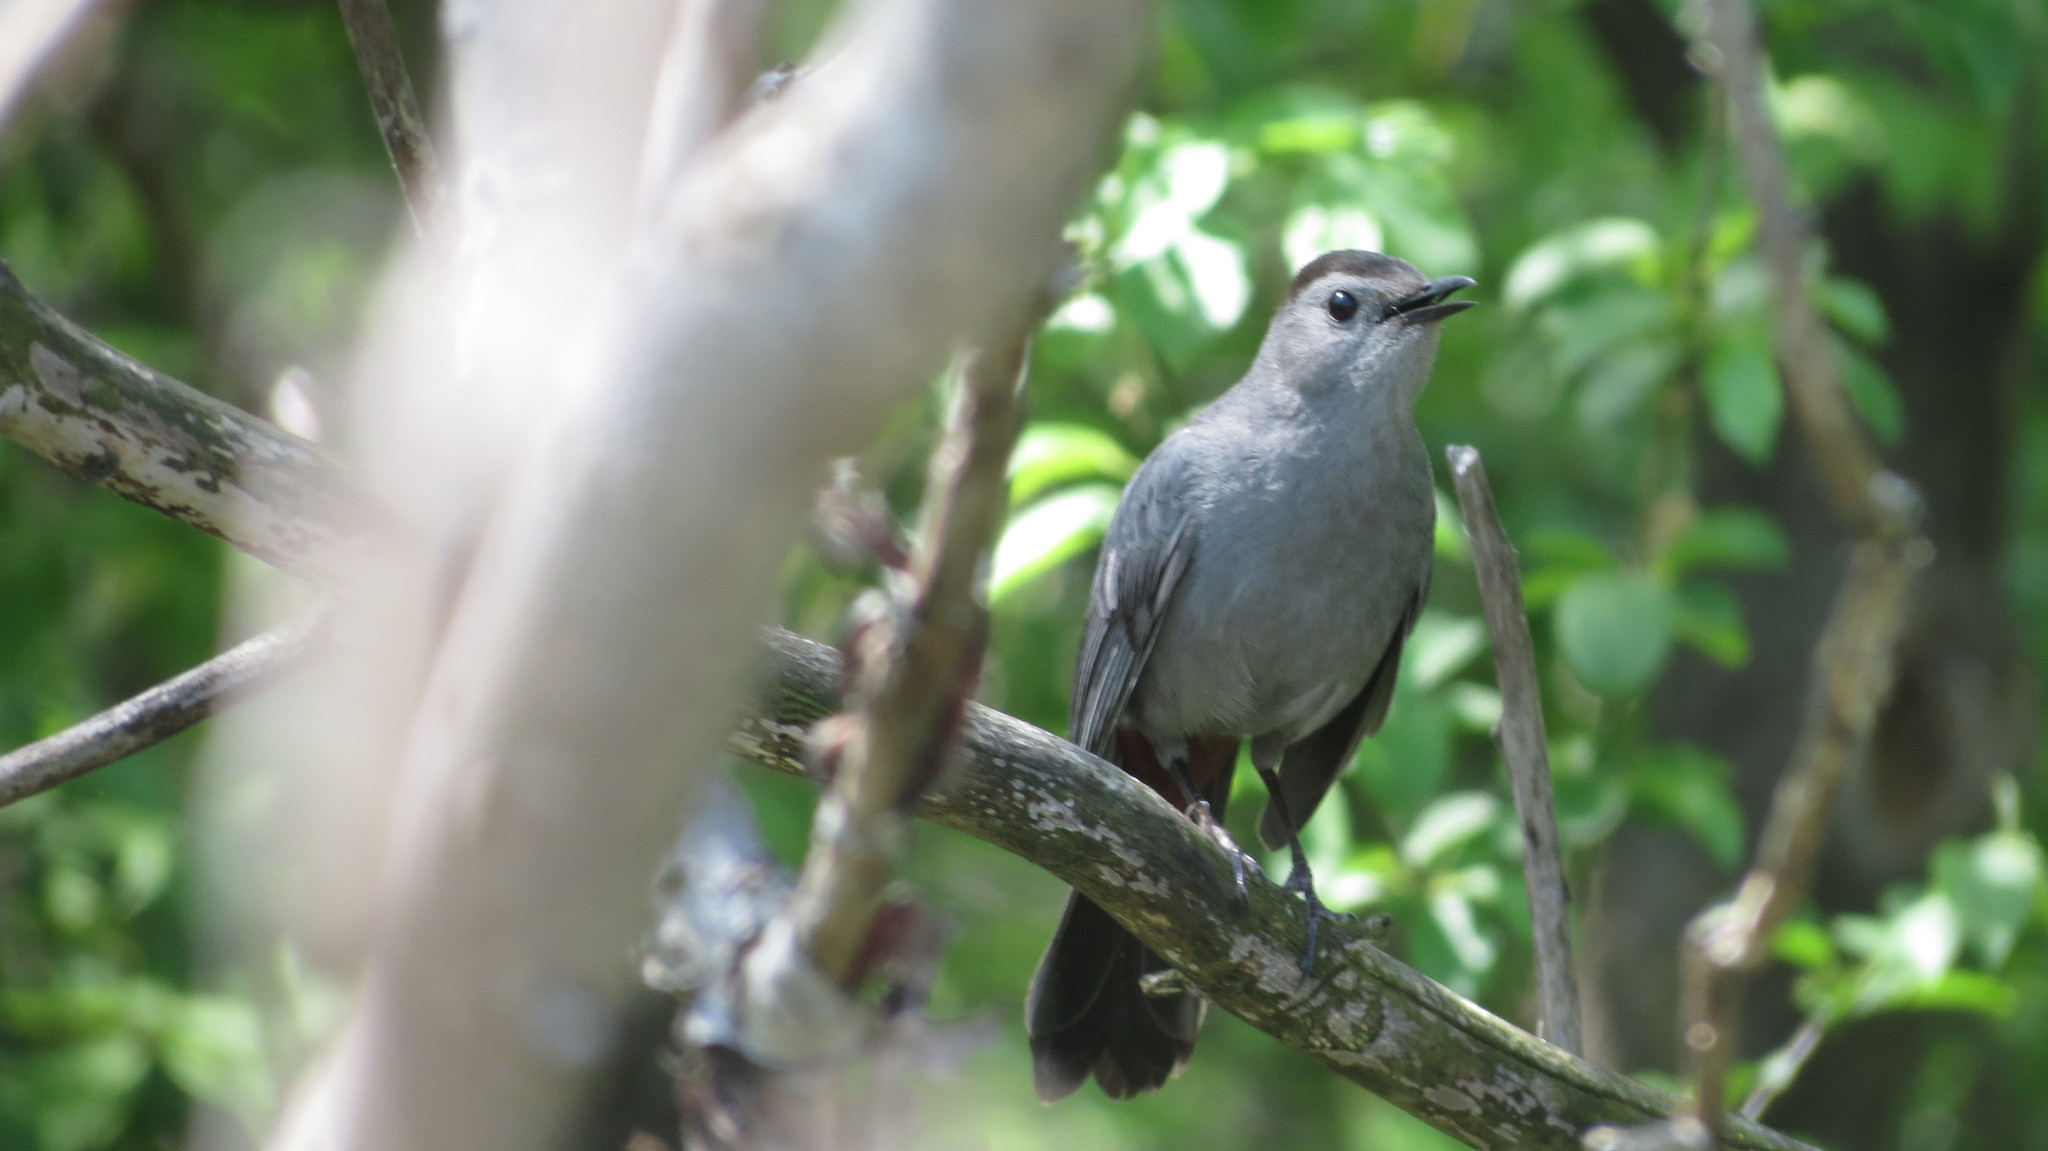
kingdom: Animalia
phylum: Chordata
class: Aves
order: Passeriformes
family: Mimidae
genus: Dumetella
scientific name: Dumetella carolinensis
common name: Gray catbird
